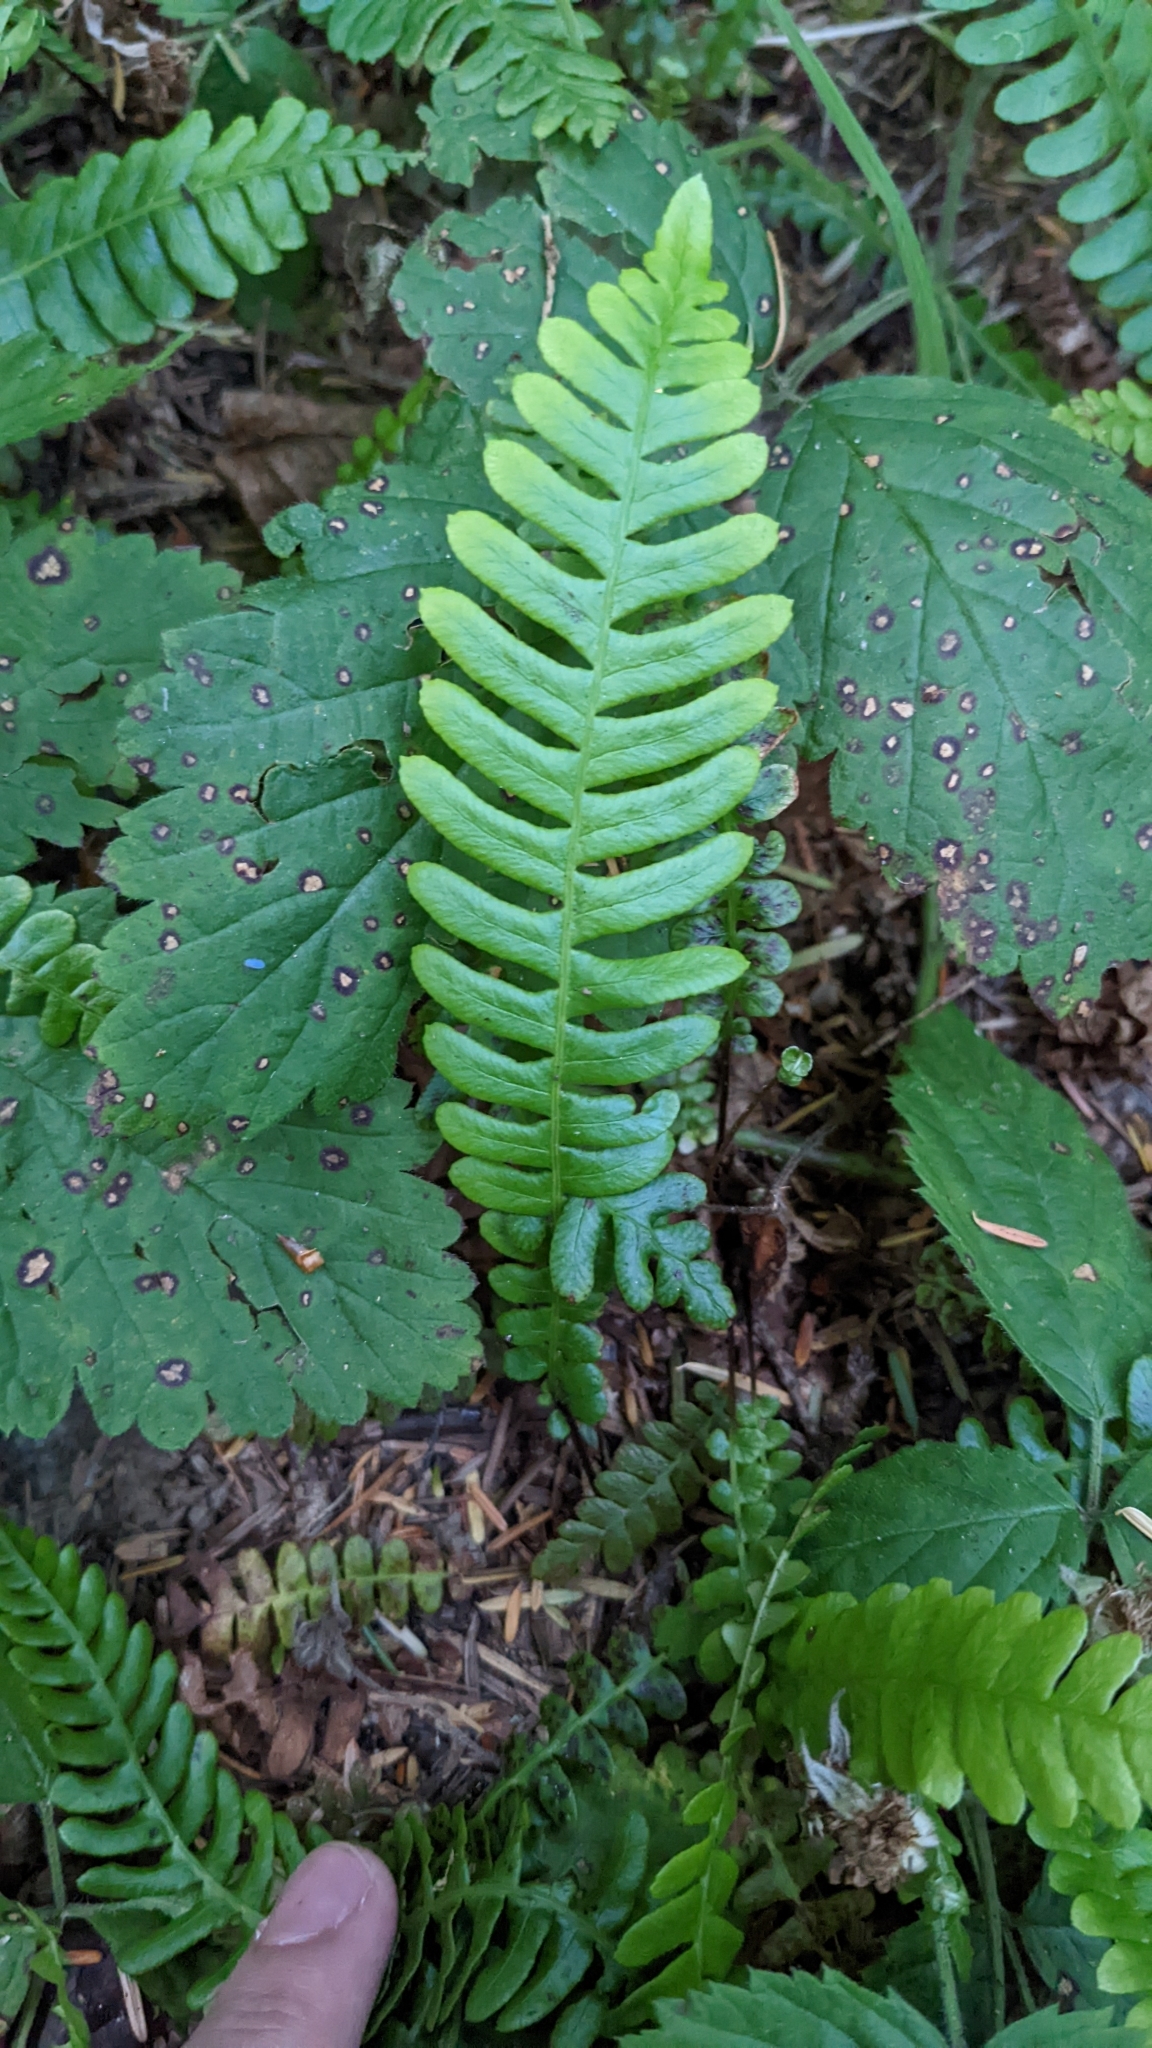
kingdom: Plantae
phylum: Tracheophyta
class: Polypodiopsida
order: Polypodiales
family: Blechnaceae
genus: Struthiopteris
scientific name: Struthiopteris spicant
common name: Deer fern
